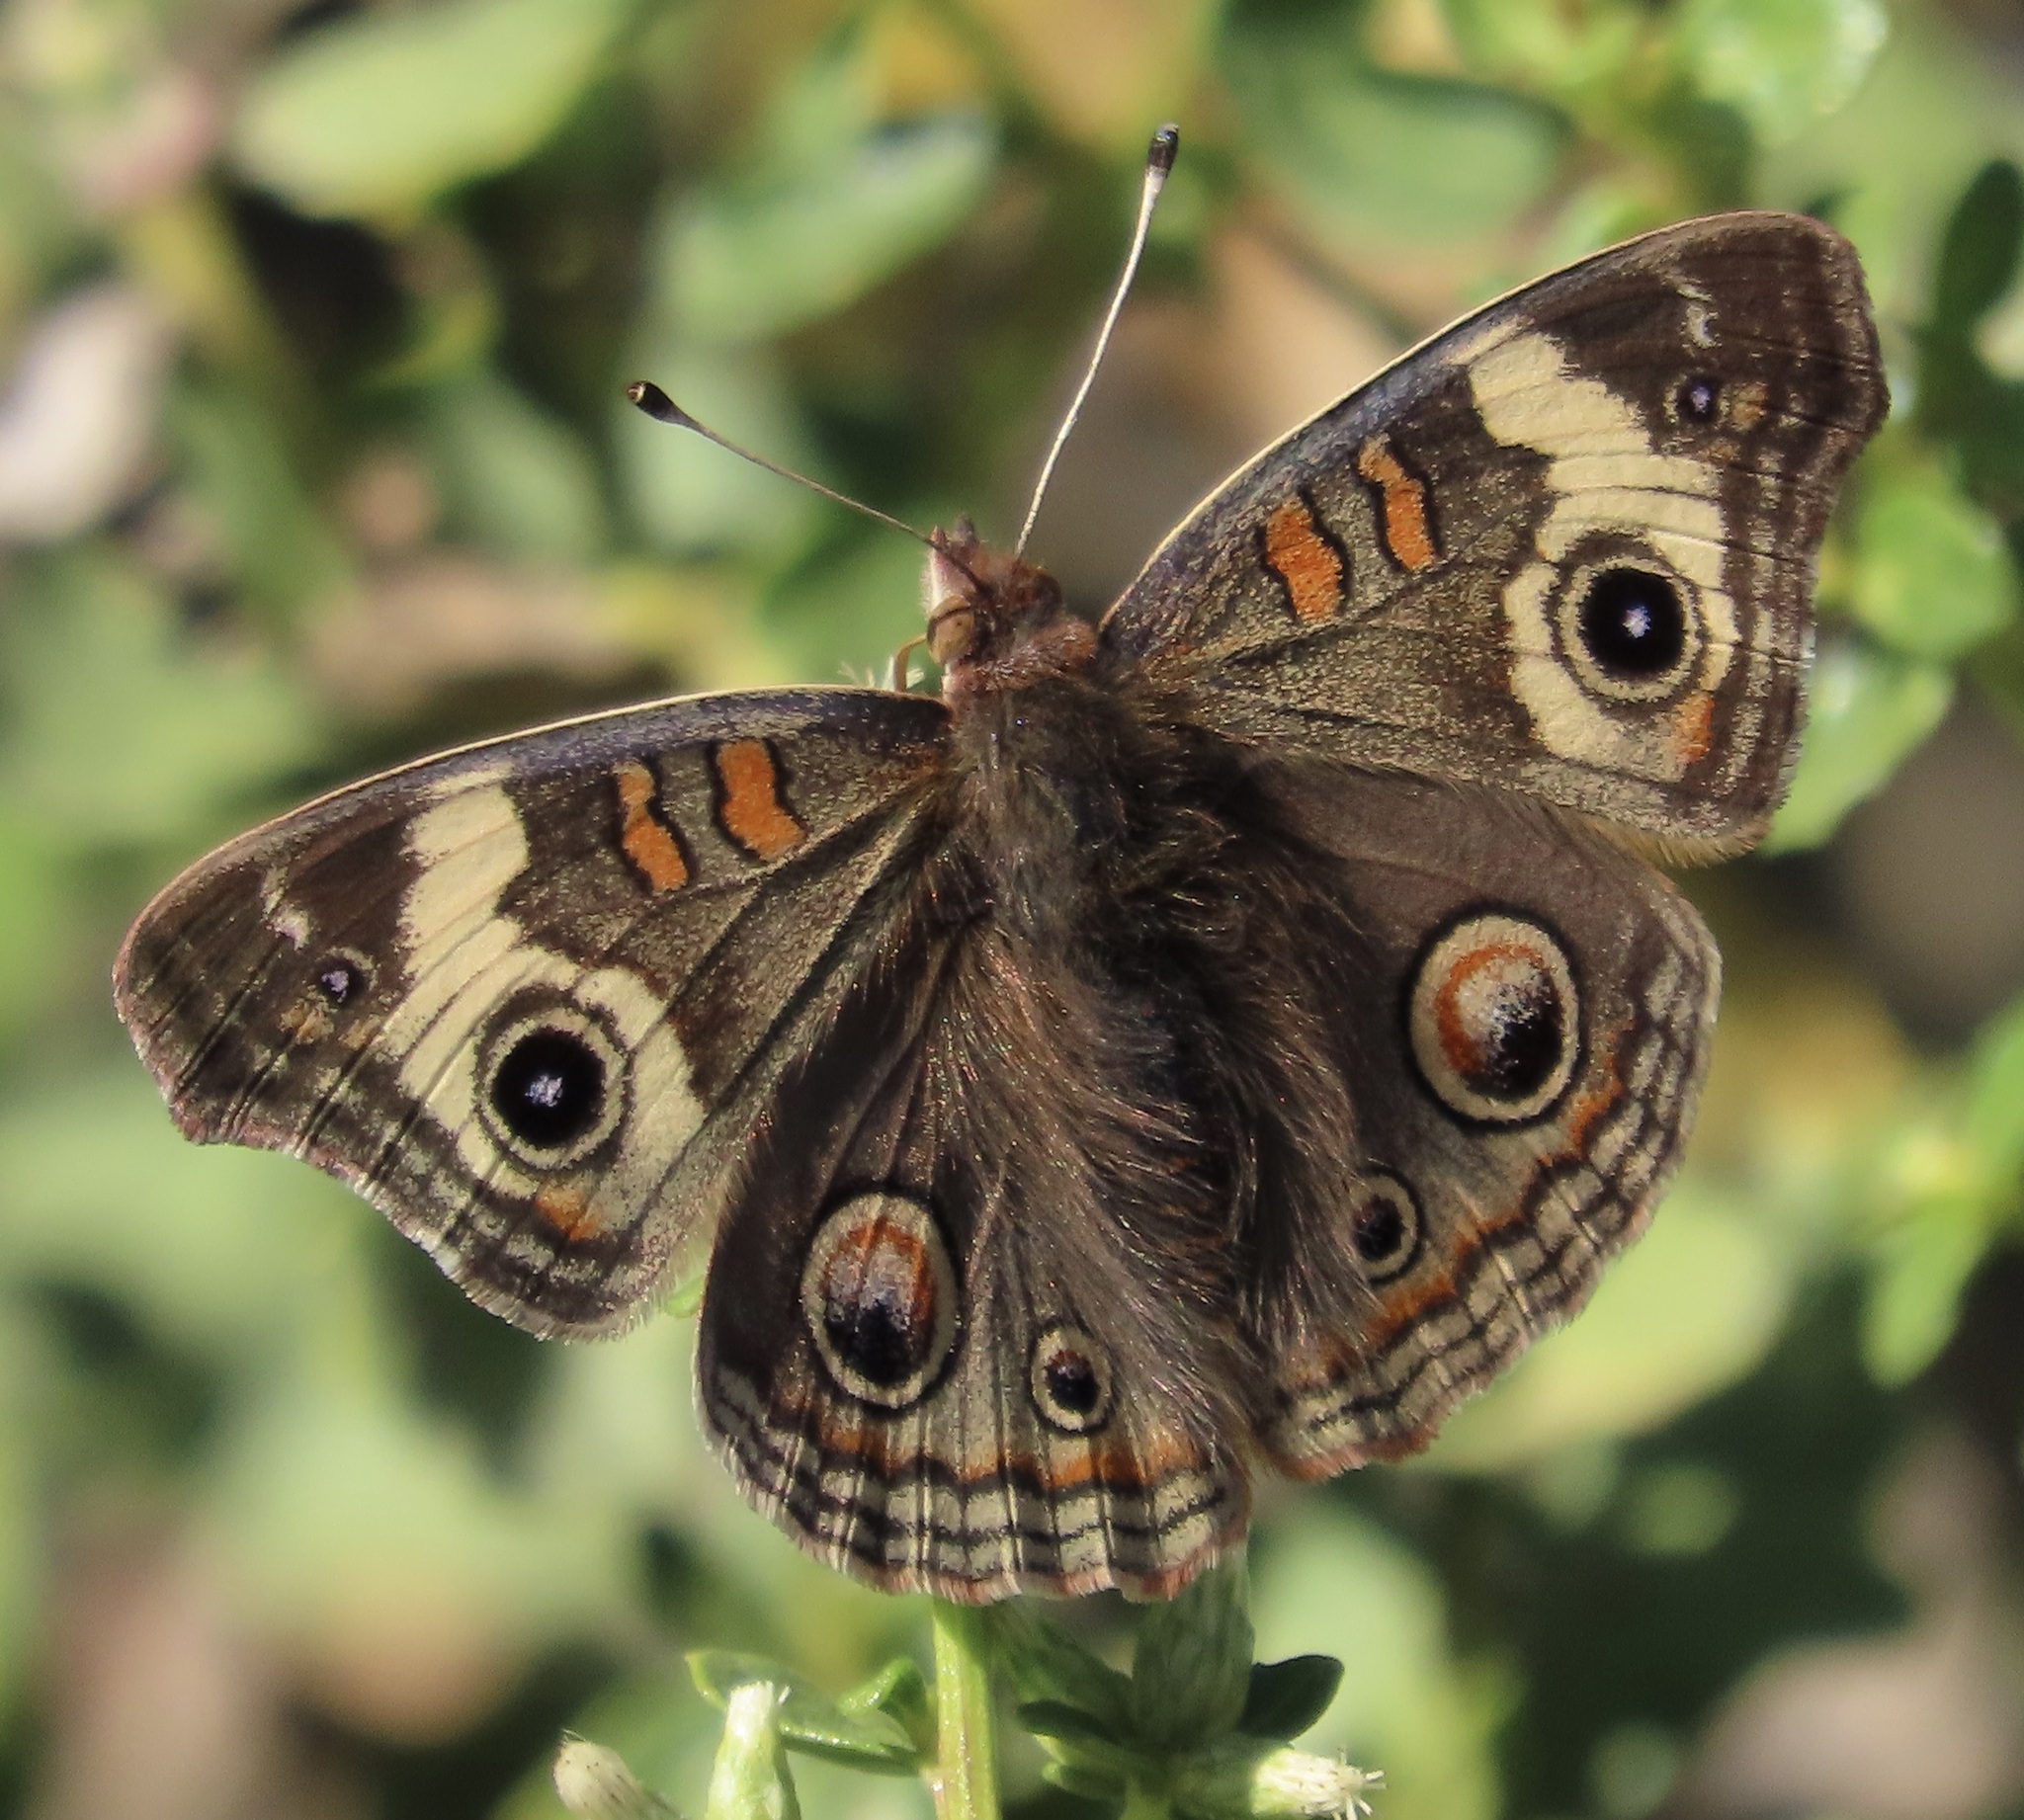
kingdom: Animalia
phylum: Arthropoda
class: Insecta
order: Lepidoptera
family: Nymphalidae
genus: Junonia
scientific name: Junonia grisea
